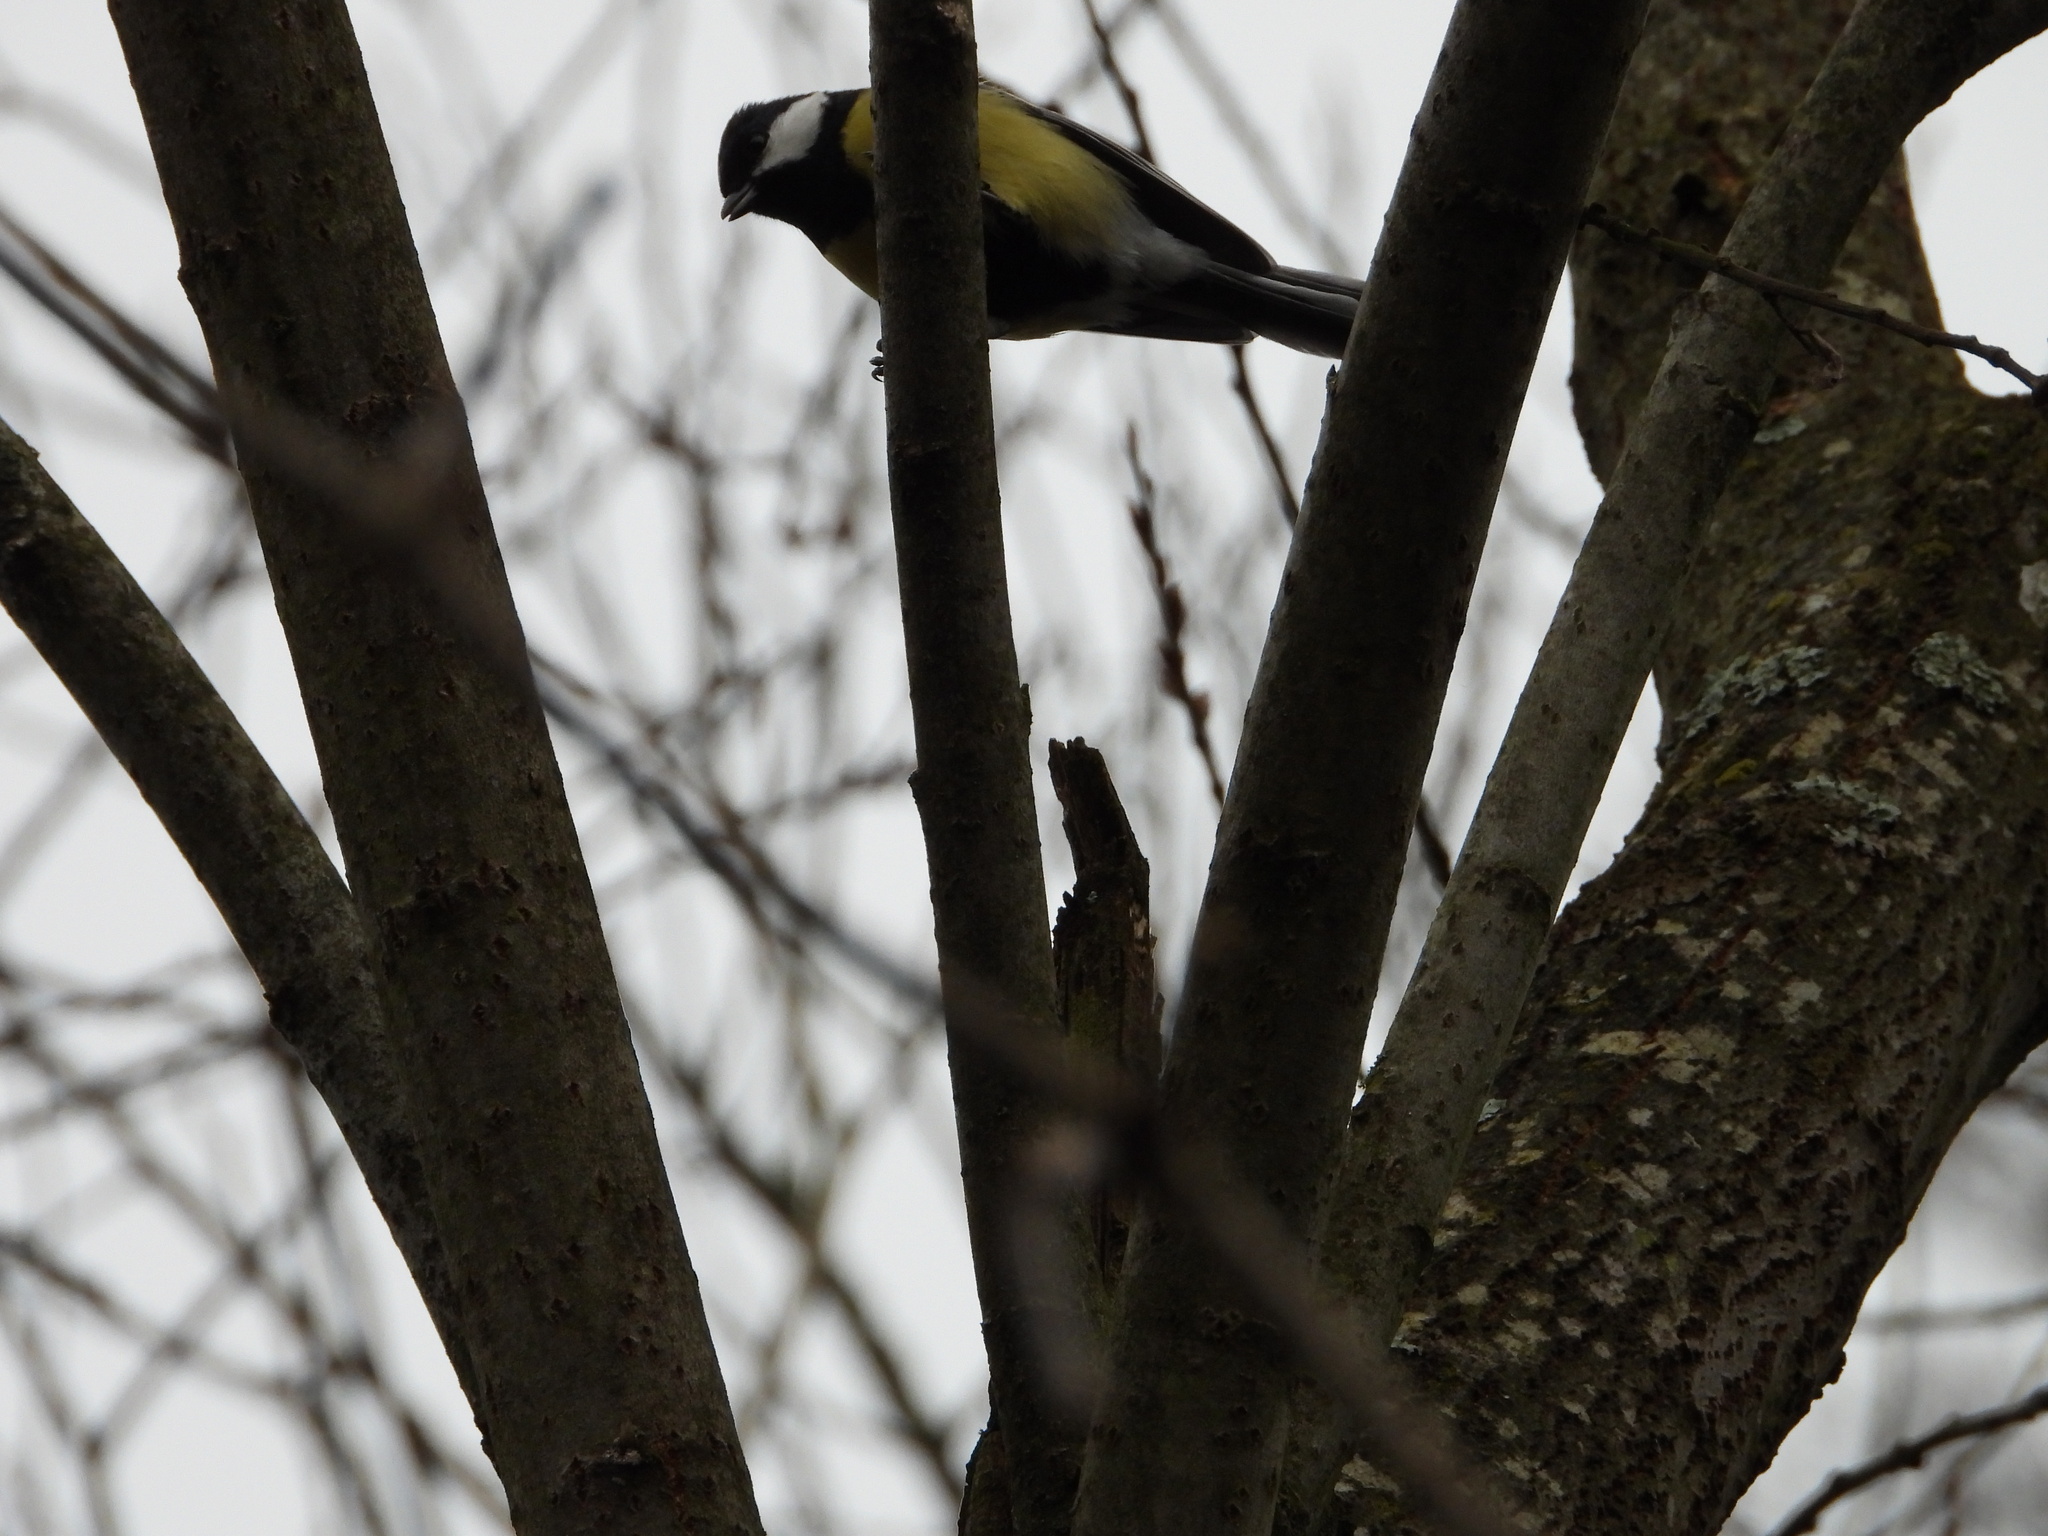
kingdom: Animalia
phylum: Chordata
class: Aves
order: Passeriformes
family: Paridae
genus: Parus
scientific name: Parus major
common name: Great tit
